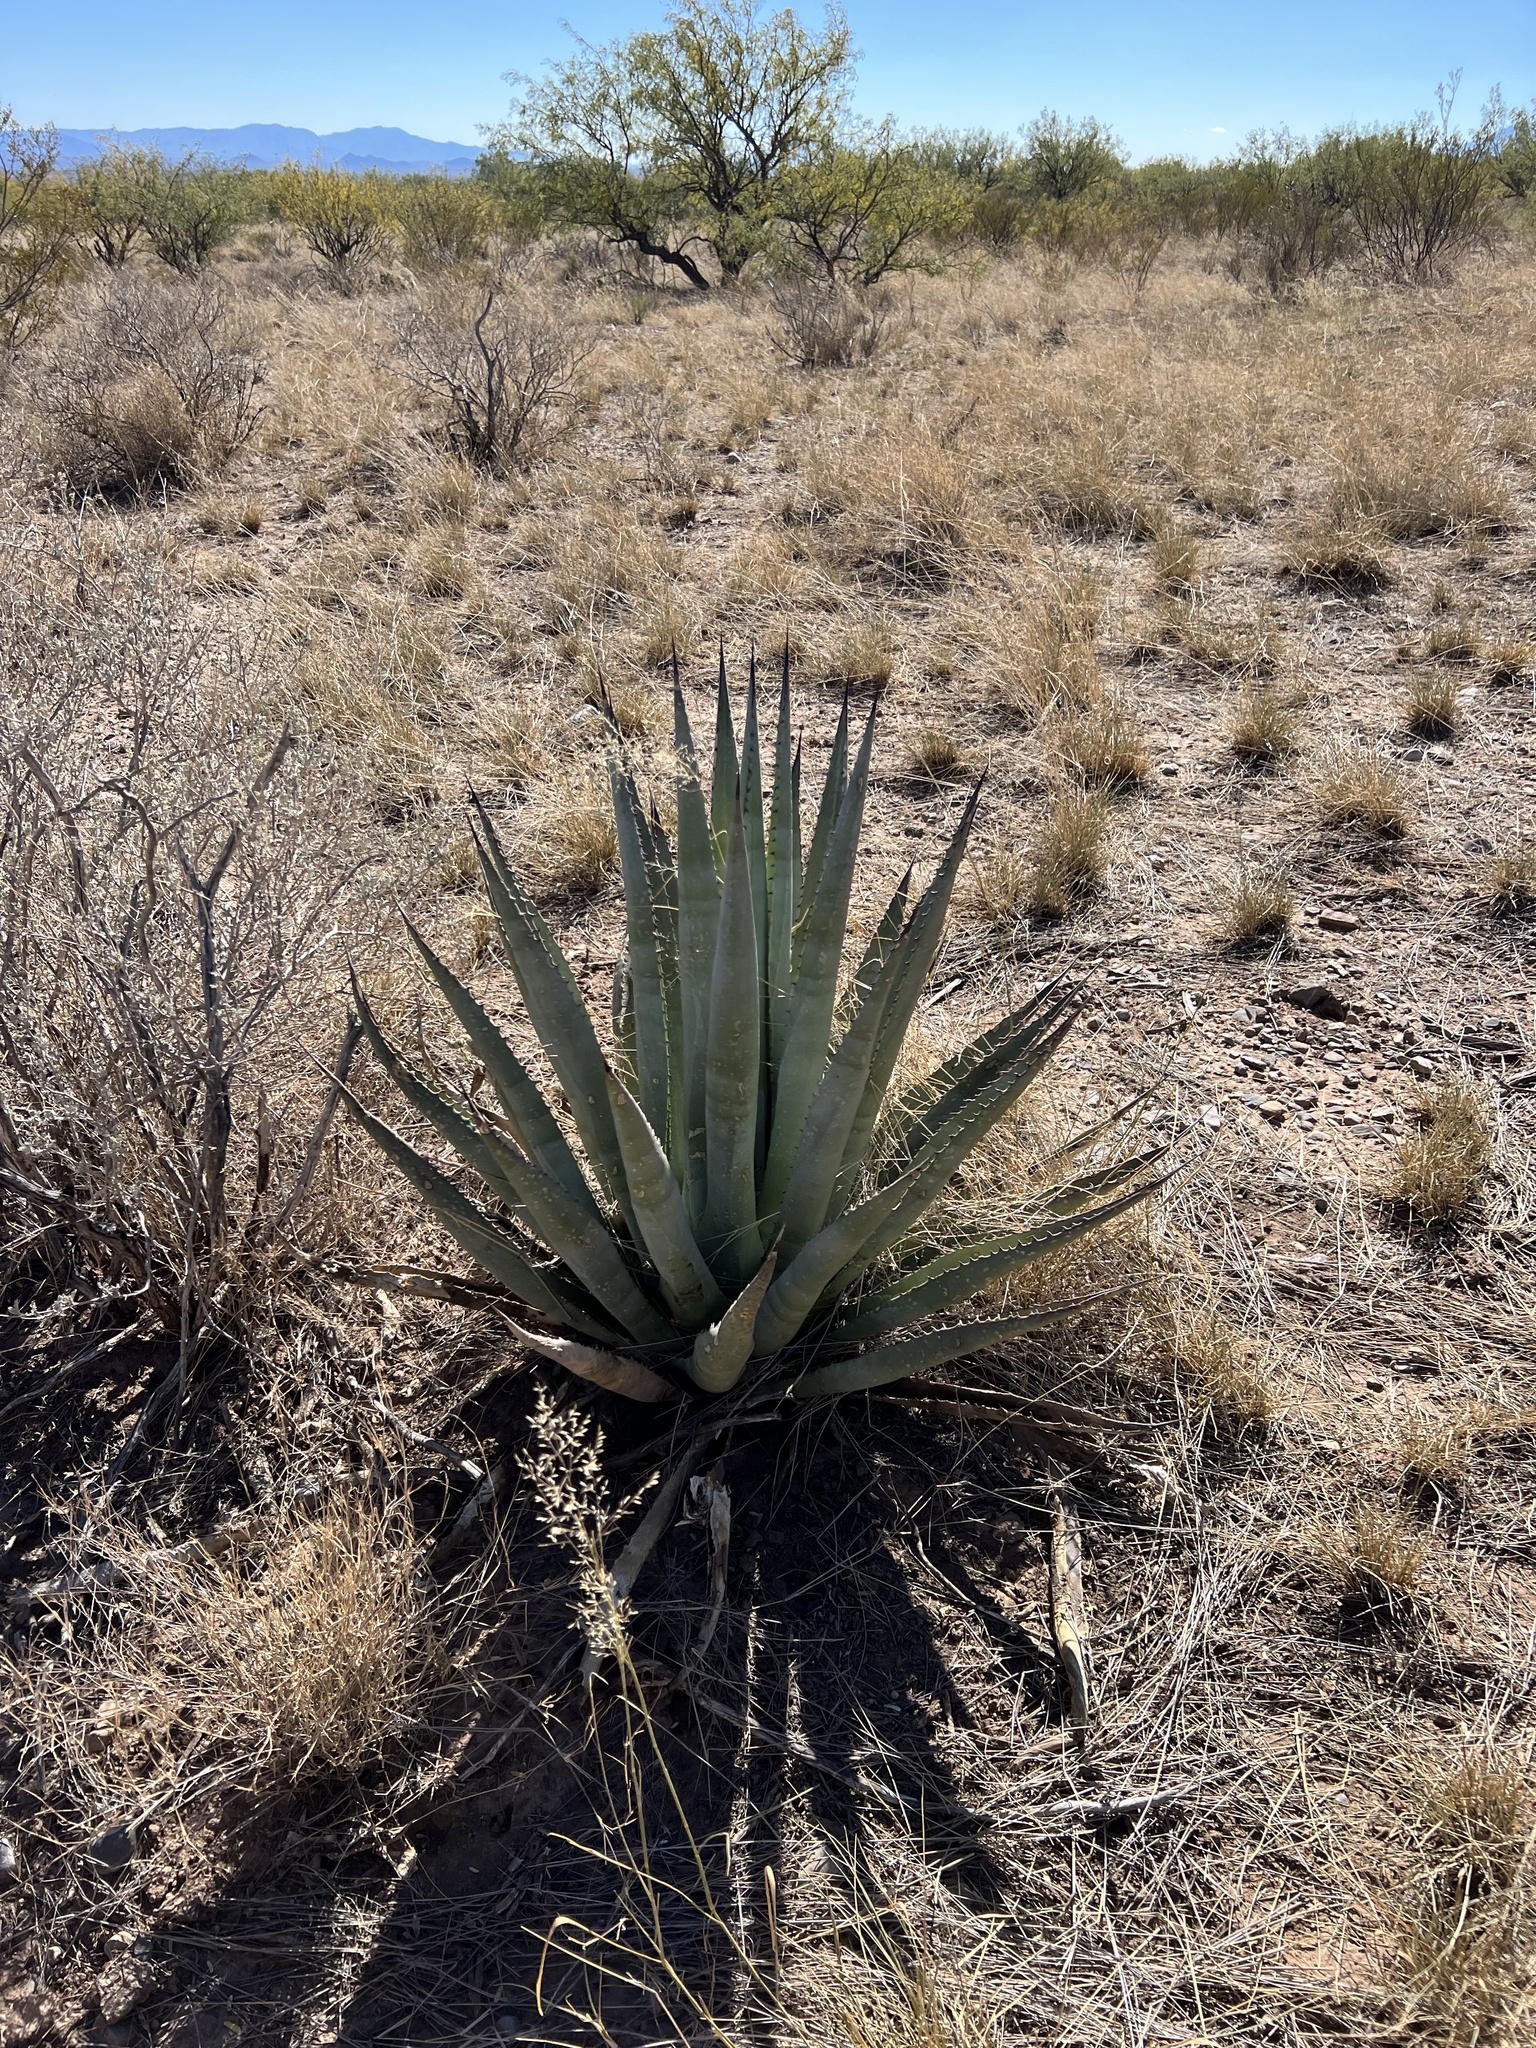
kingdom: Plantae
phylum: Tracheophyta
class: Liliopsida
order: Asparagales
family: Asparagaceae
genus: Agave
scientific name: Agave palmeri
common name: Palmer agave
